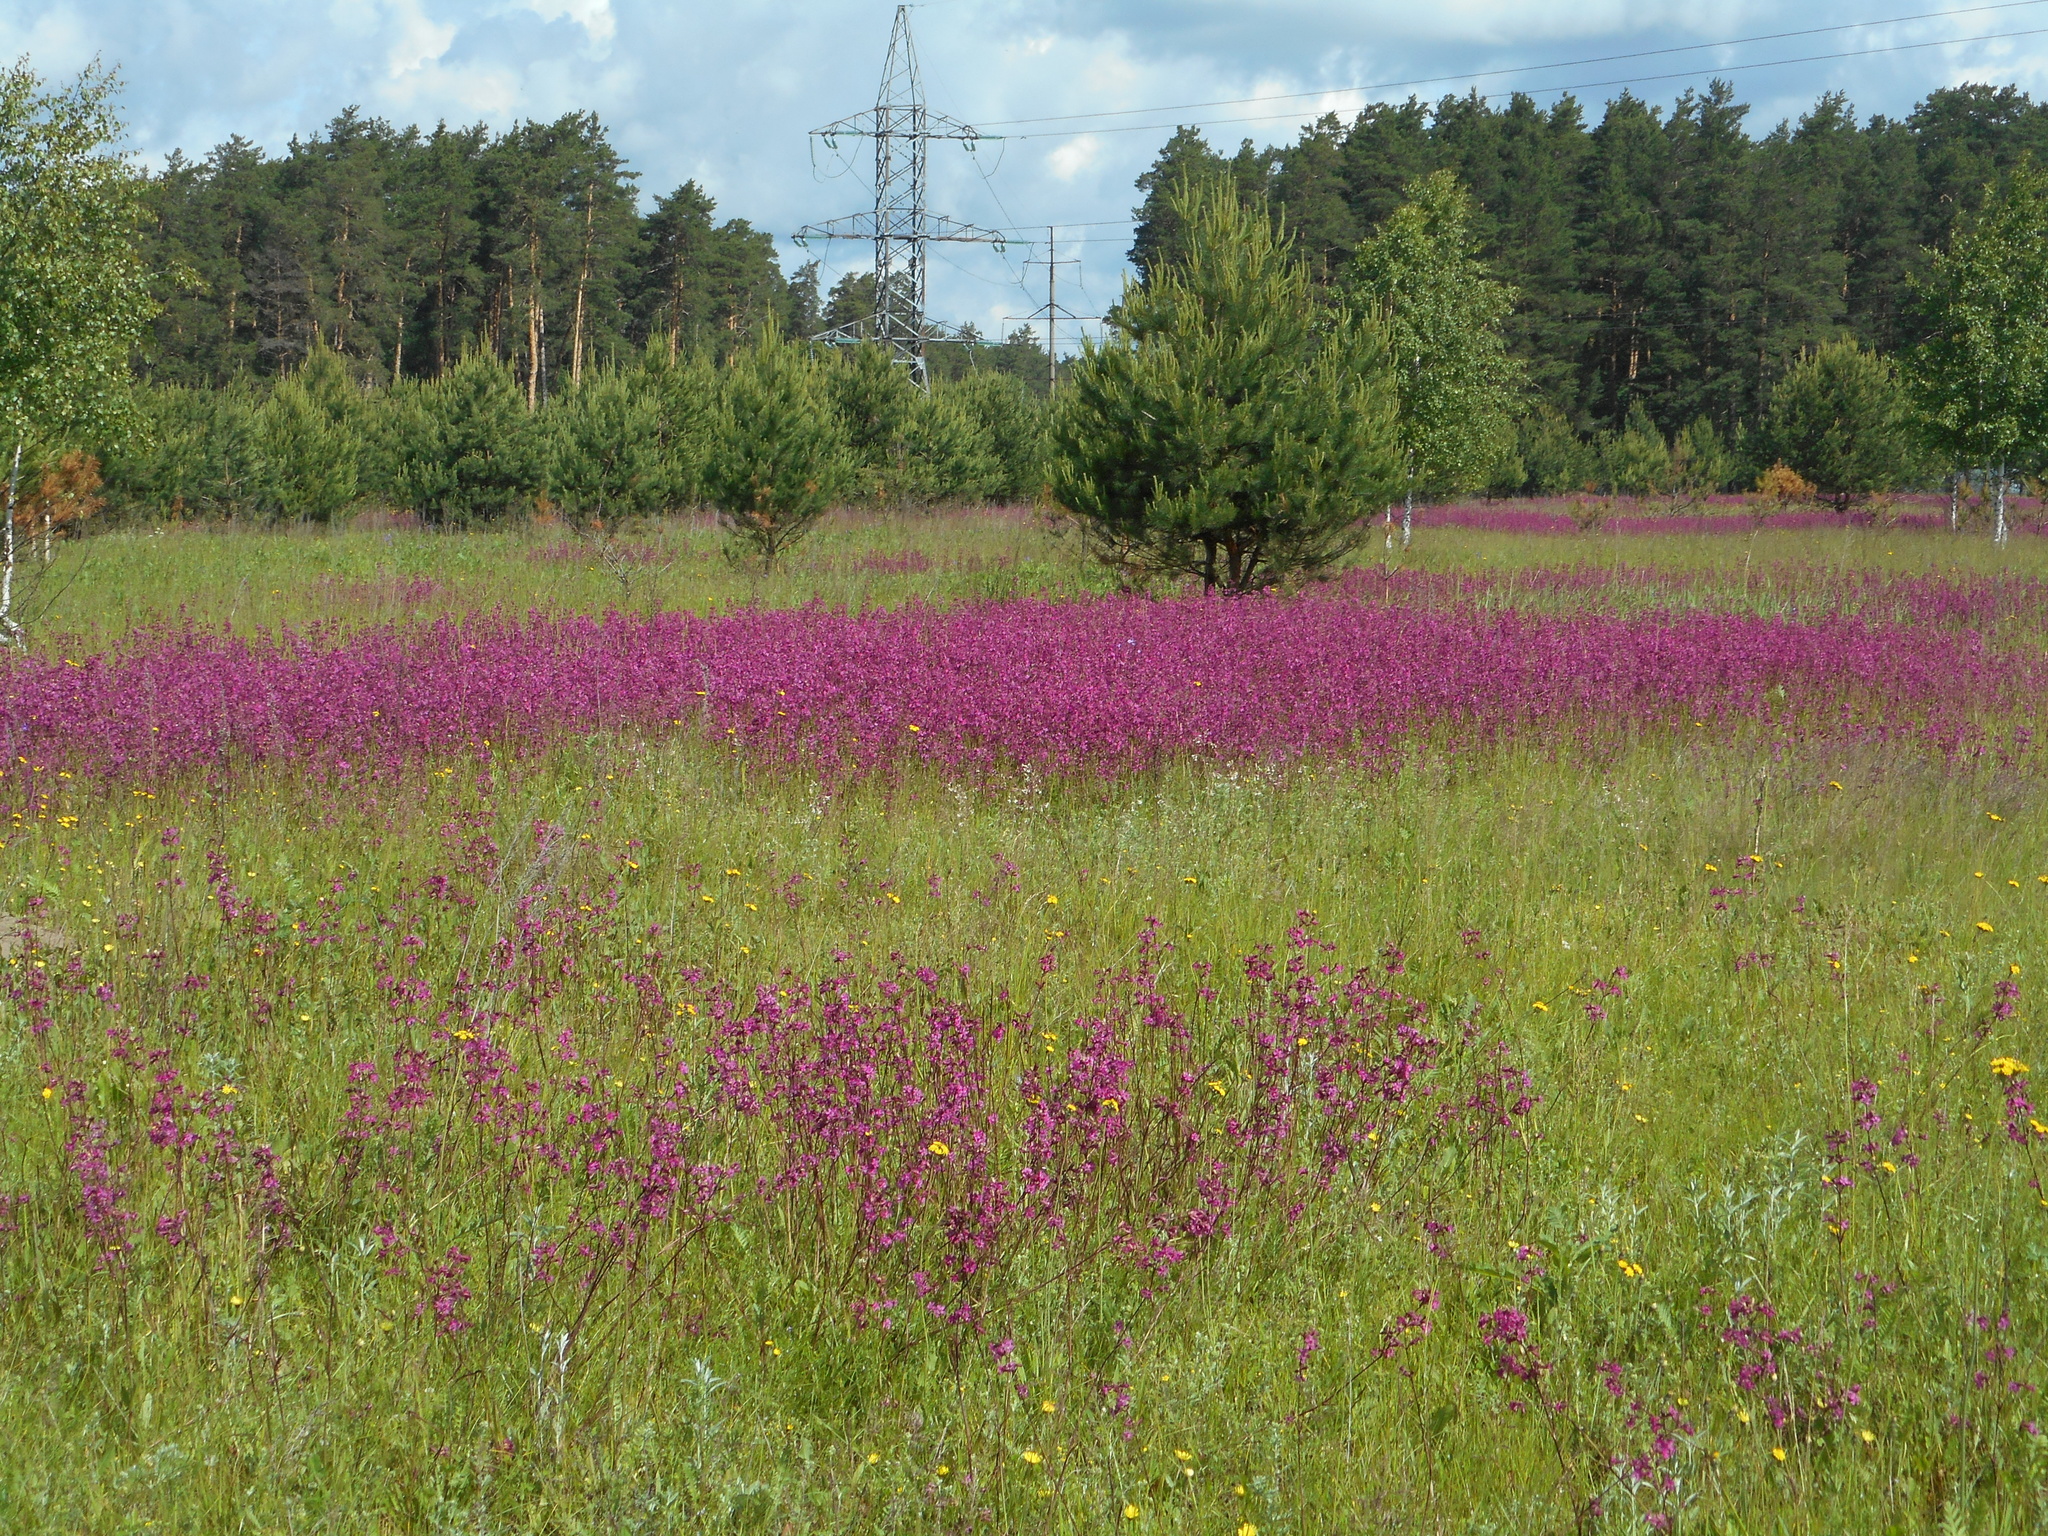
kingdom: Plantae
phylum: Tracheophyta
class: Magnoliopsida
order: Caryophyllales
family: Caryophyllaceae
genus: Viscaria
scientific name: Viscaria vulgaris
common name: Clammy campion
